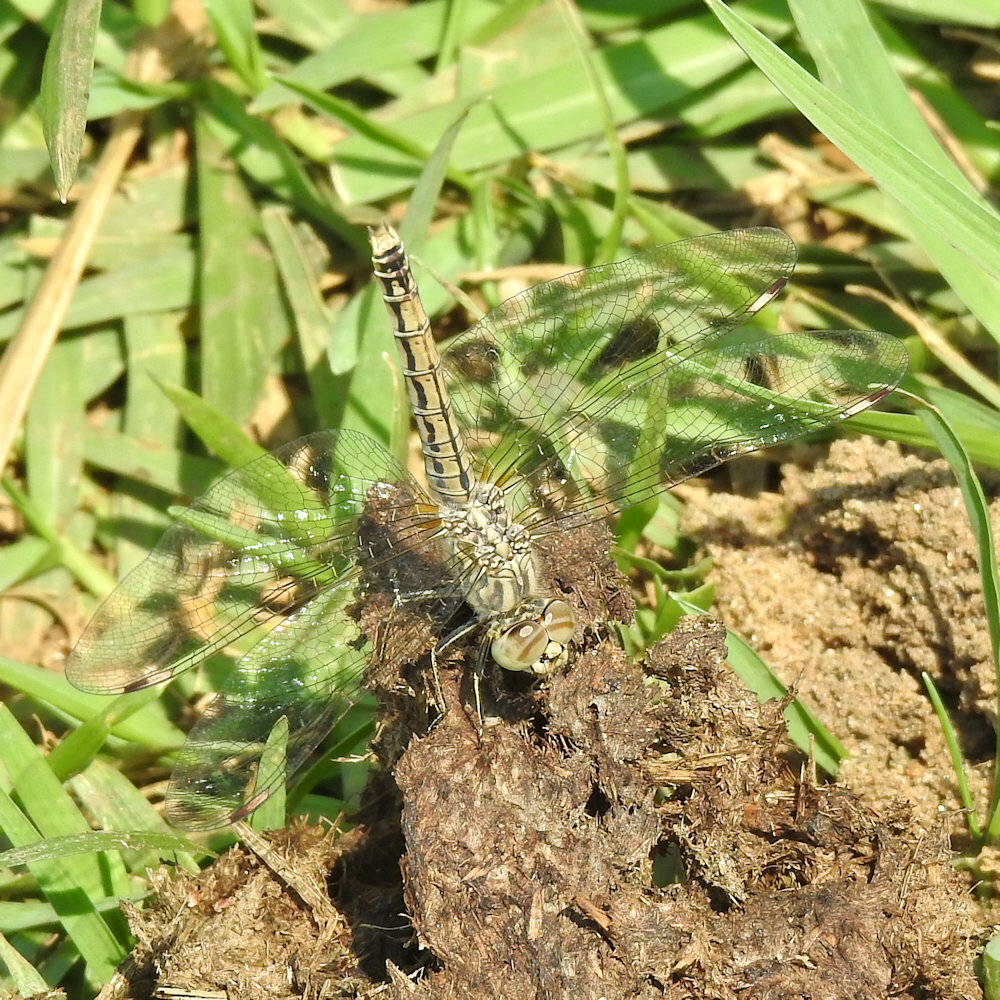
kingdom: Animalia
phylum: Arthropoda
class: Insecta
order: Odonata
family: Libellulidae
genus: Brachythemis
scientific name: Brachythemis leucosticta
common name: Banded groundling
